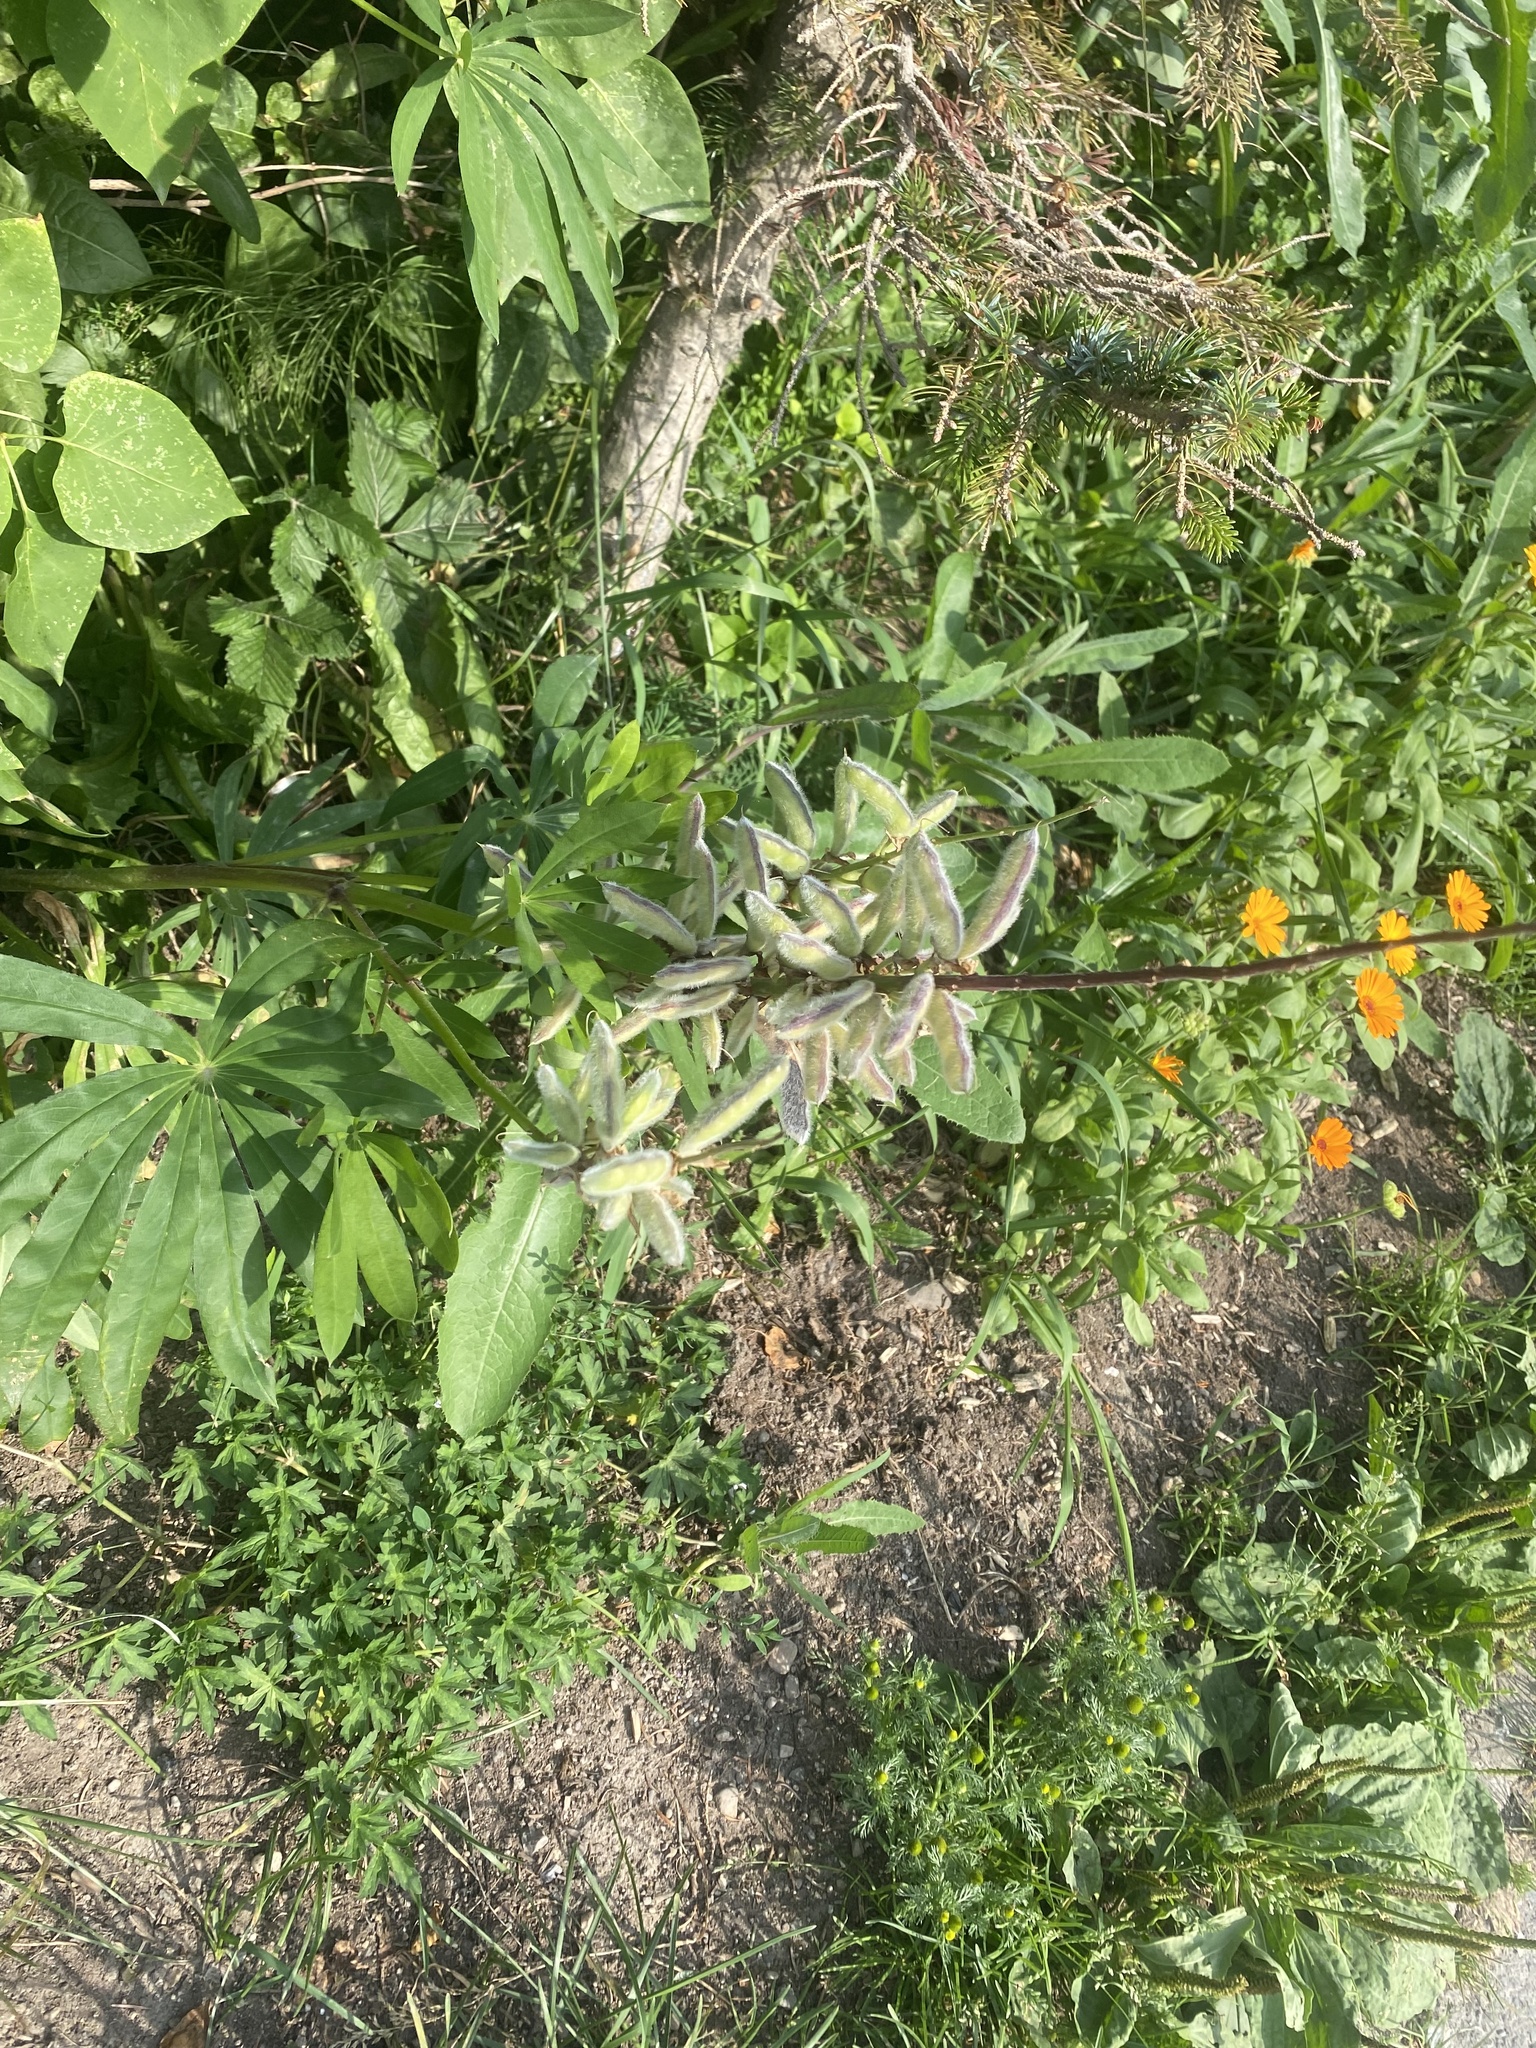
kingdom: Plantae
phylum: Tracheophyta
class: Magnoliopsida
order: Fabales
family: Fabaceae
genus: Lupinus
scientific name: Lupinus polyphyllus
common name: Garden lupin
